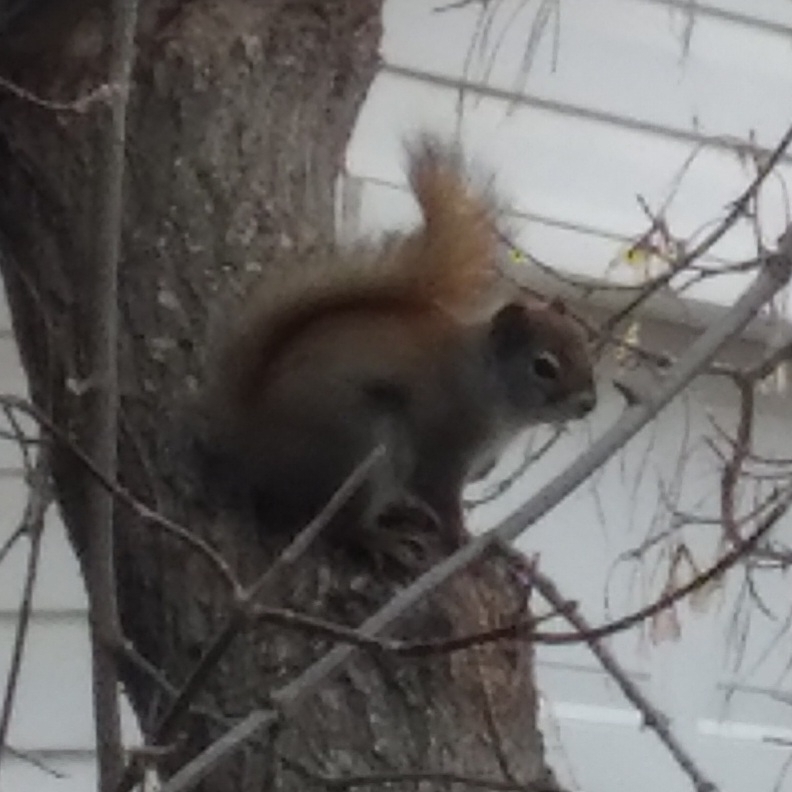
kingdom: Animalia
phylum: Chordata
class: Mammalia
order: Rodentia
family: Sciuridae
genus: Tamiasciurus
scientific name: Tamiasciurus hudsonicus
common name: Red squirrel
